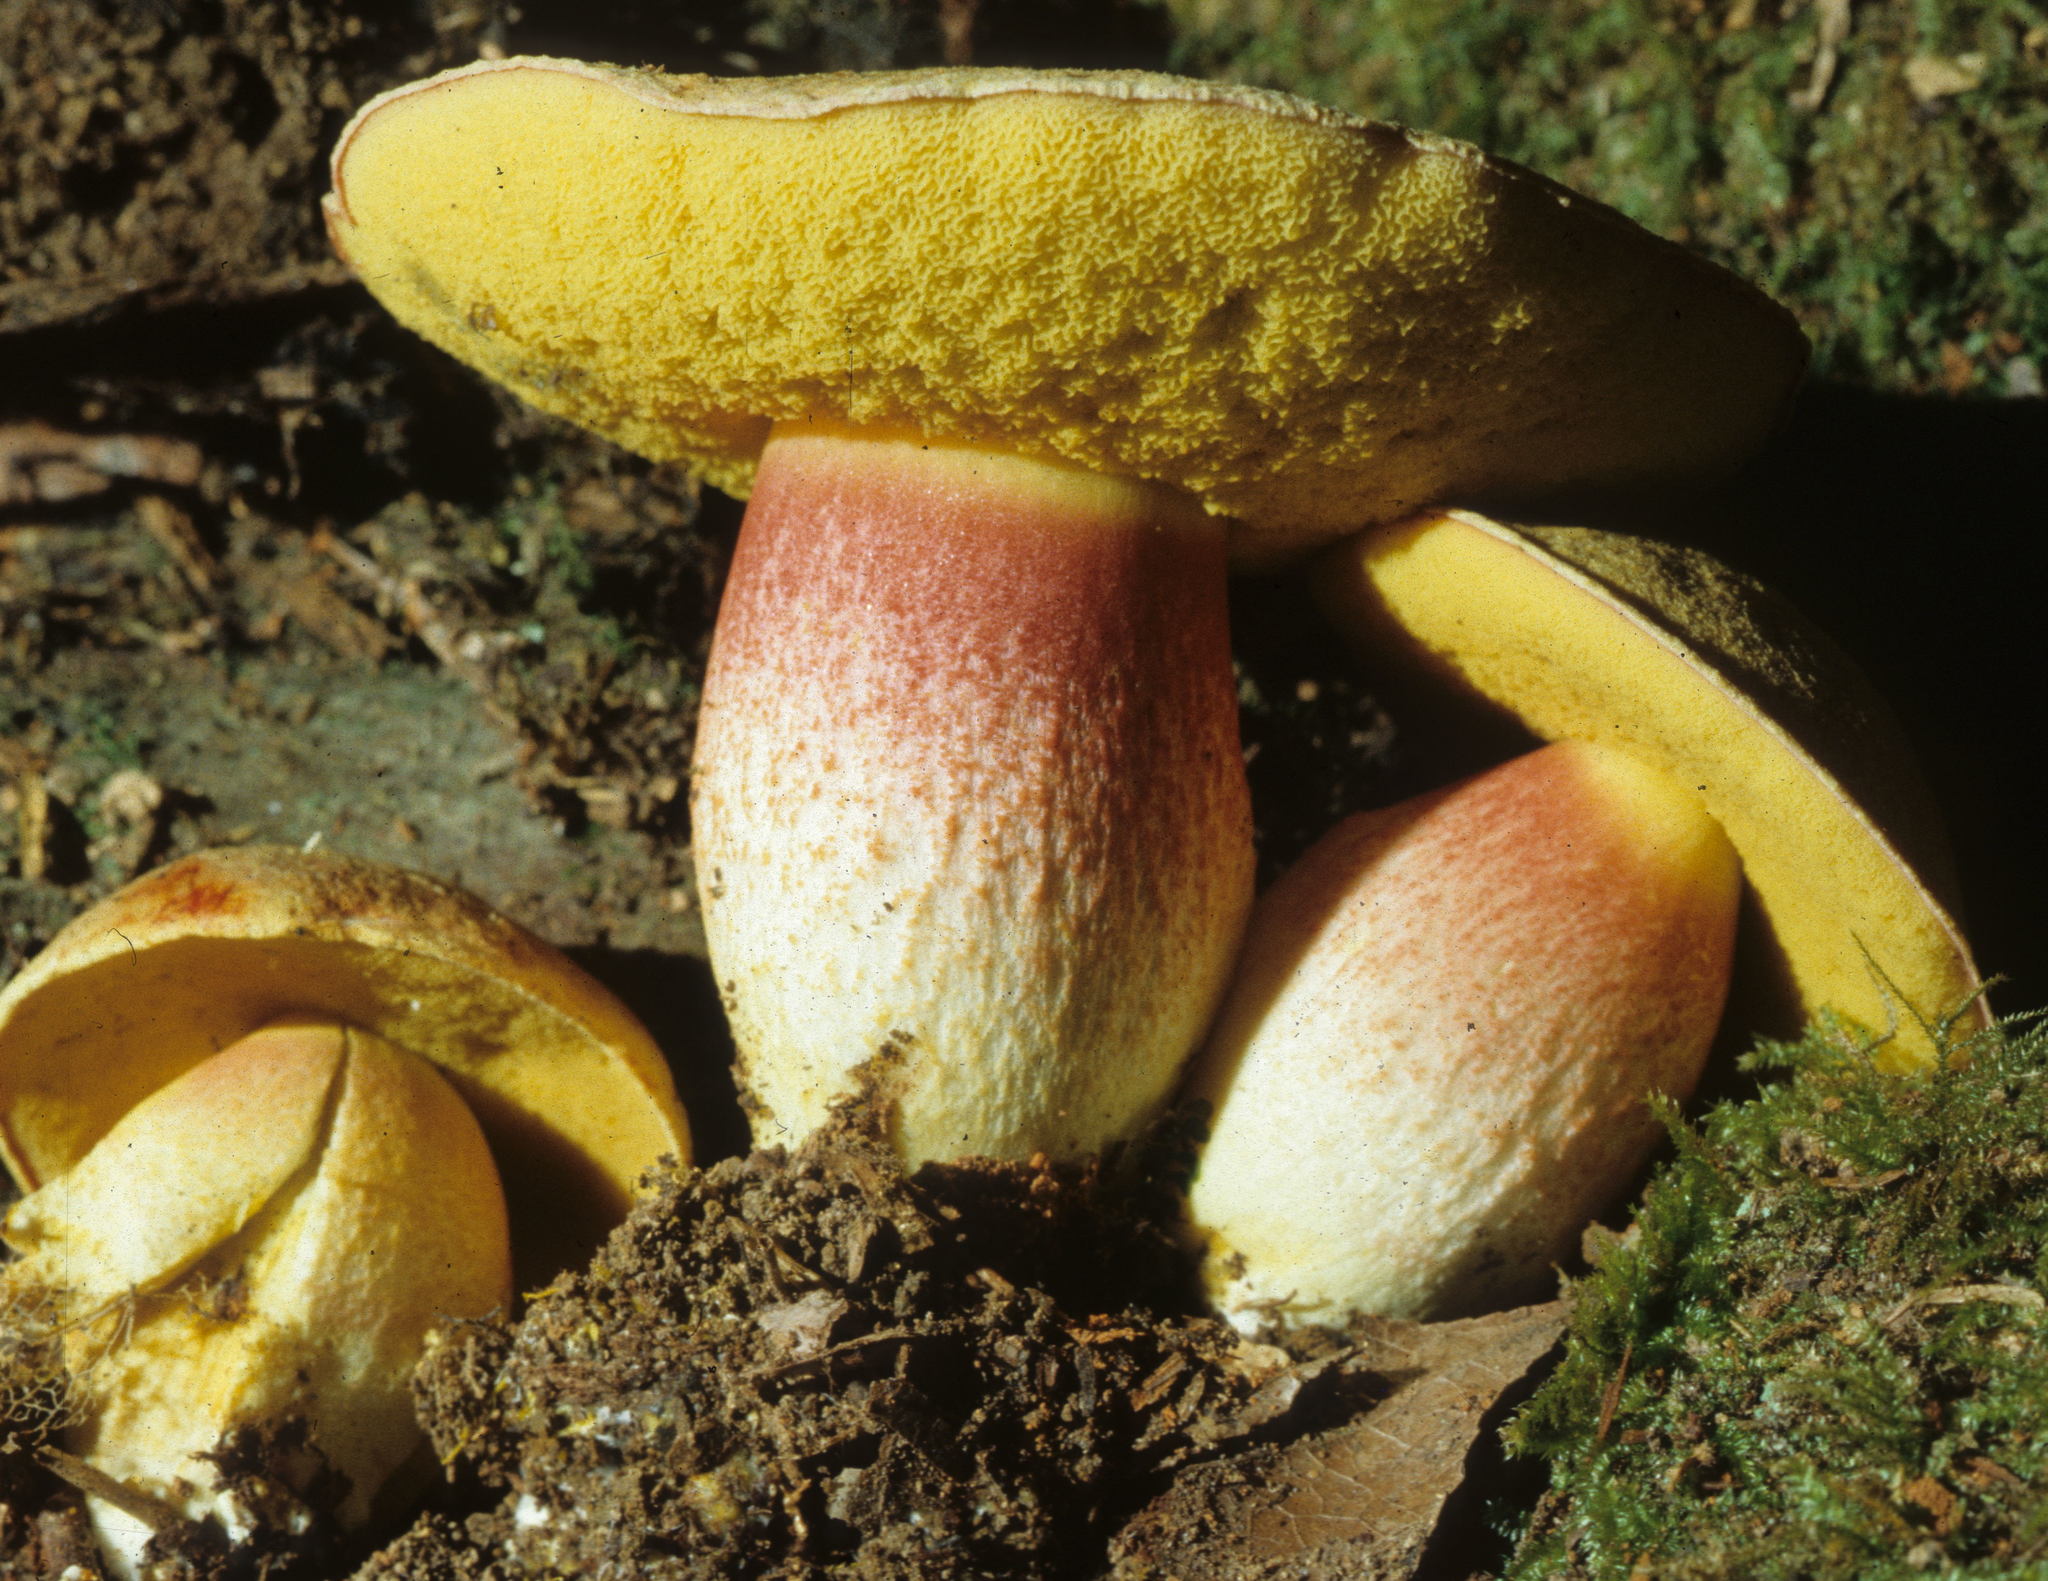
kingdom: Fungi
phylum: Basidiomycota
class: Agaricomycetes
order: Boletales
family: Boletaceae
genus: Boletus
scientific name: Boletus smithii
